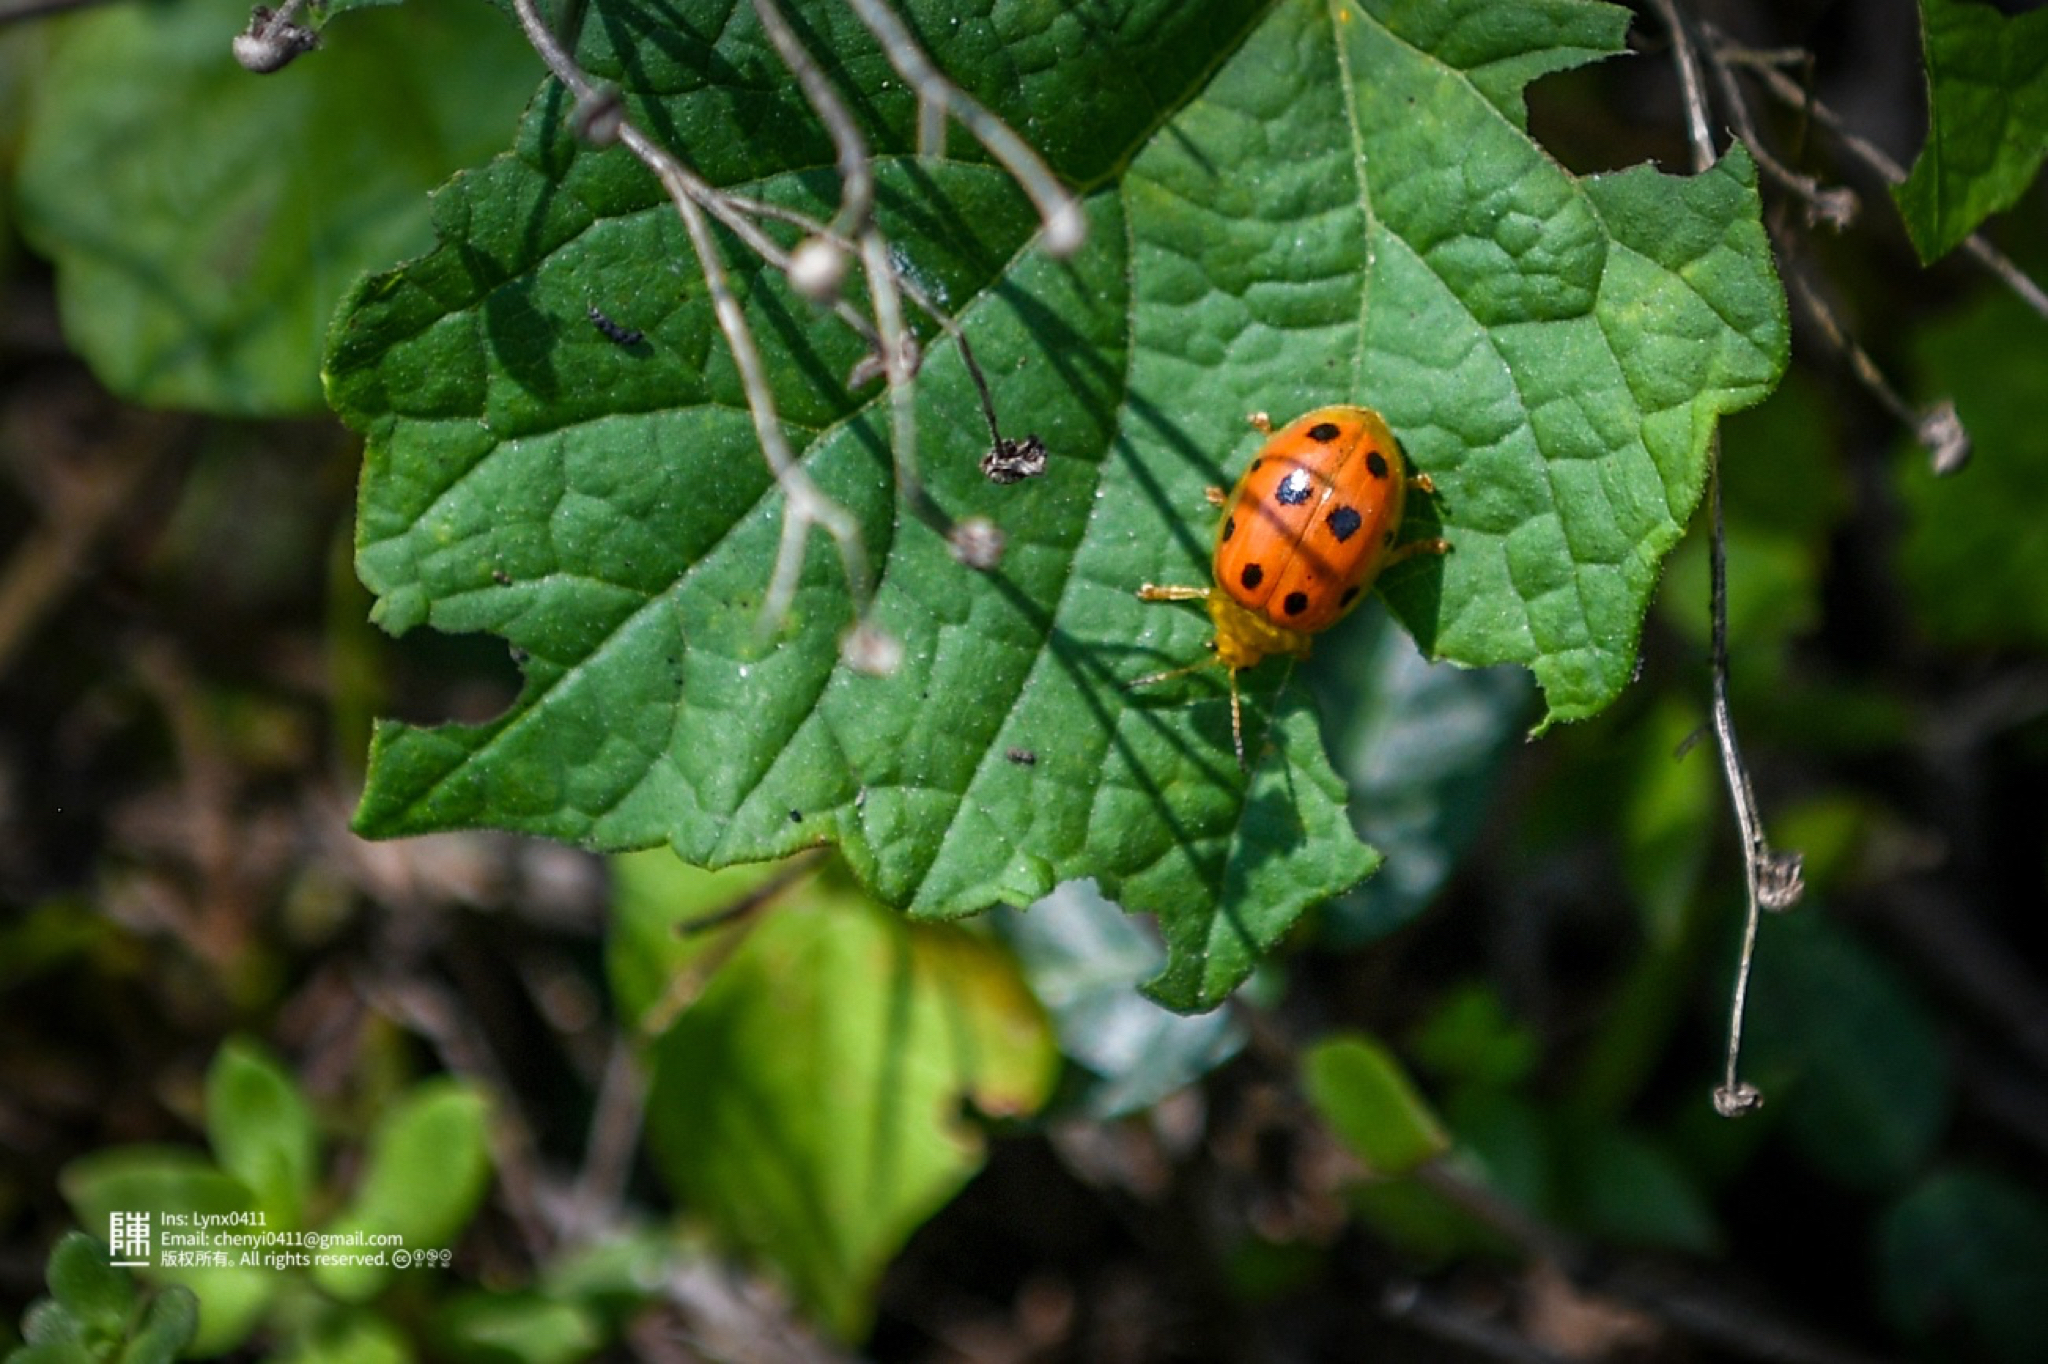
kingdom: Animalia
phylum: Arthropoda
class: Insecta
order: Coleoptera
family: Chrysomelidae
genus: Oides
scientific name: Oides decempunctata
